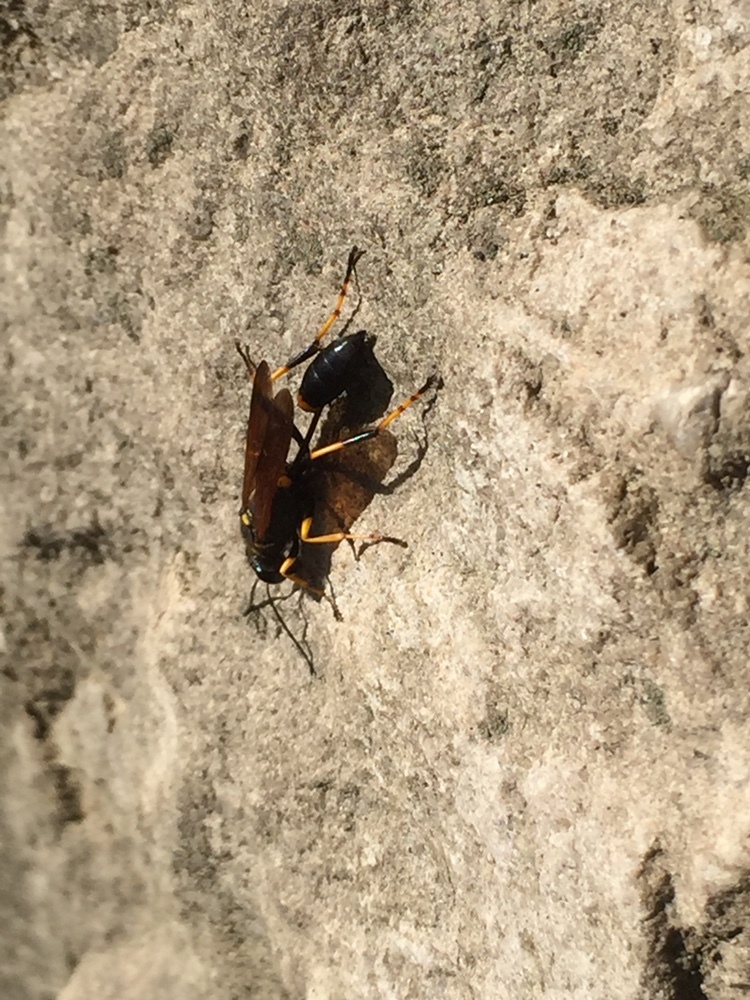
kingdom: Animalia
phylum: Arthropoda
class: Insecta
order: Hymenoptera
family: Sphecidae
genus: Sceliphron
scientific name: Sceliphron caementarium
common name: Mud dauber
